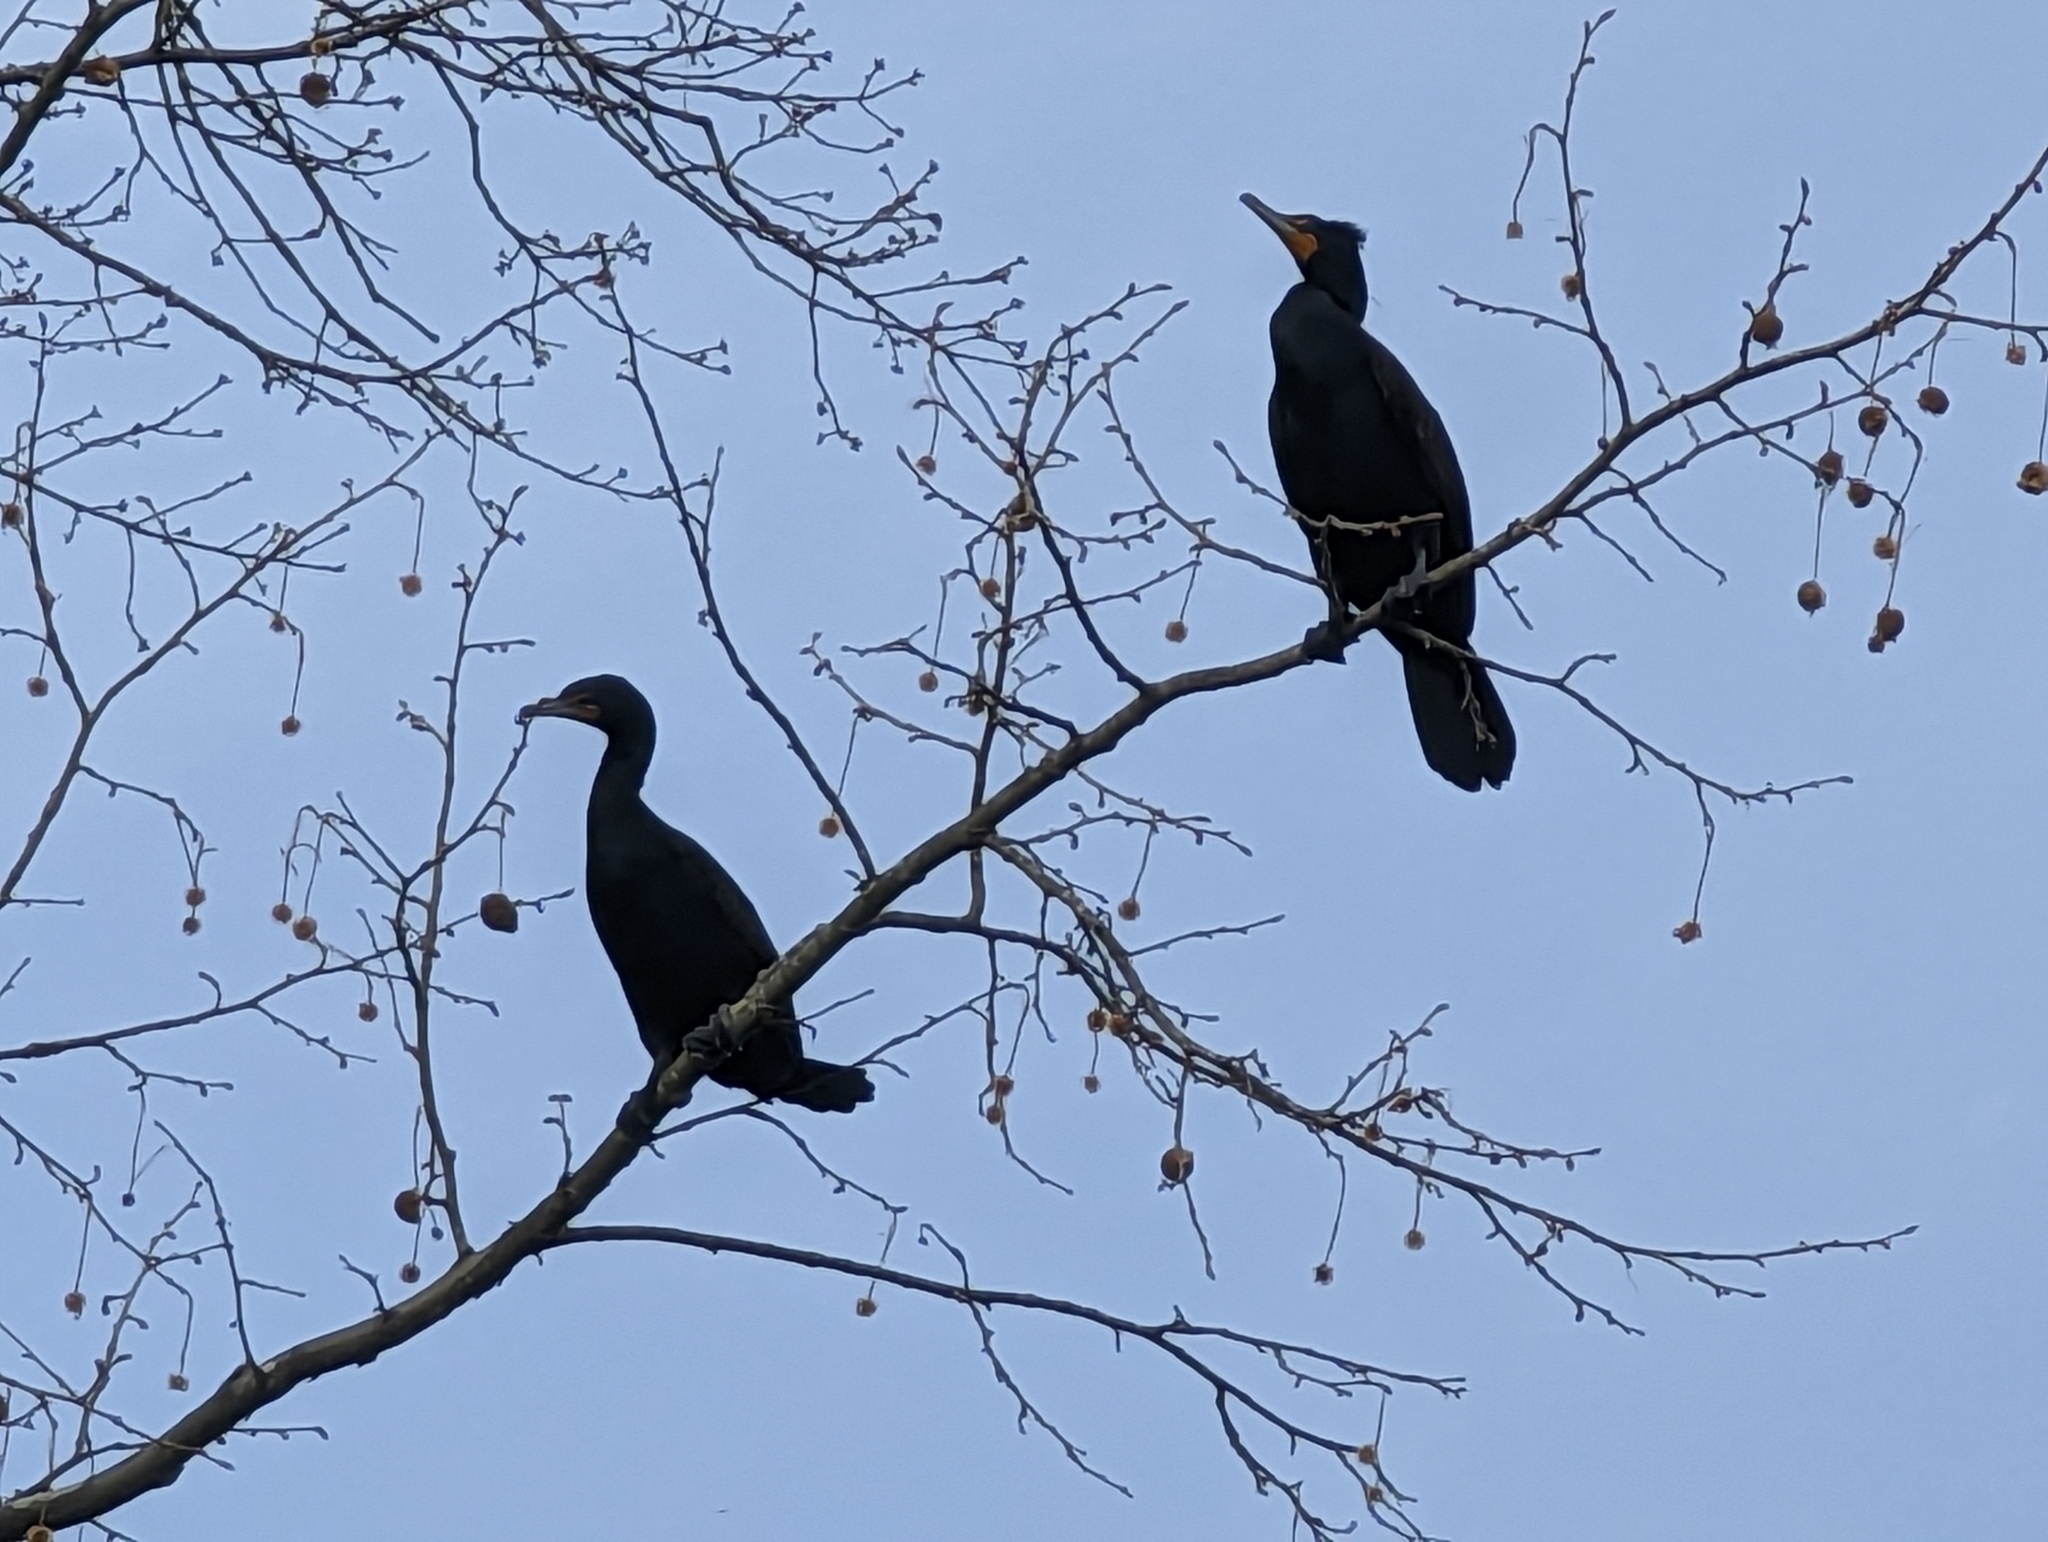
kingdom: Animalia
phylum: Chordata
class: Aves
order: Suliformes
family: Phalacrocoracidae
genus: Phalacrocorax
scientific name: Phalacrocorax auritus
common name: Double-crested cormorant
